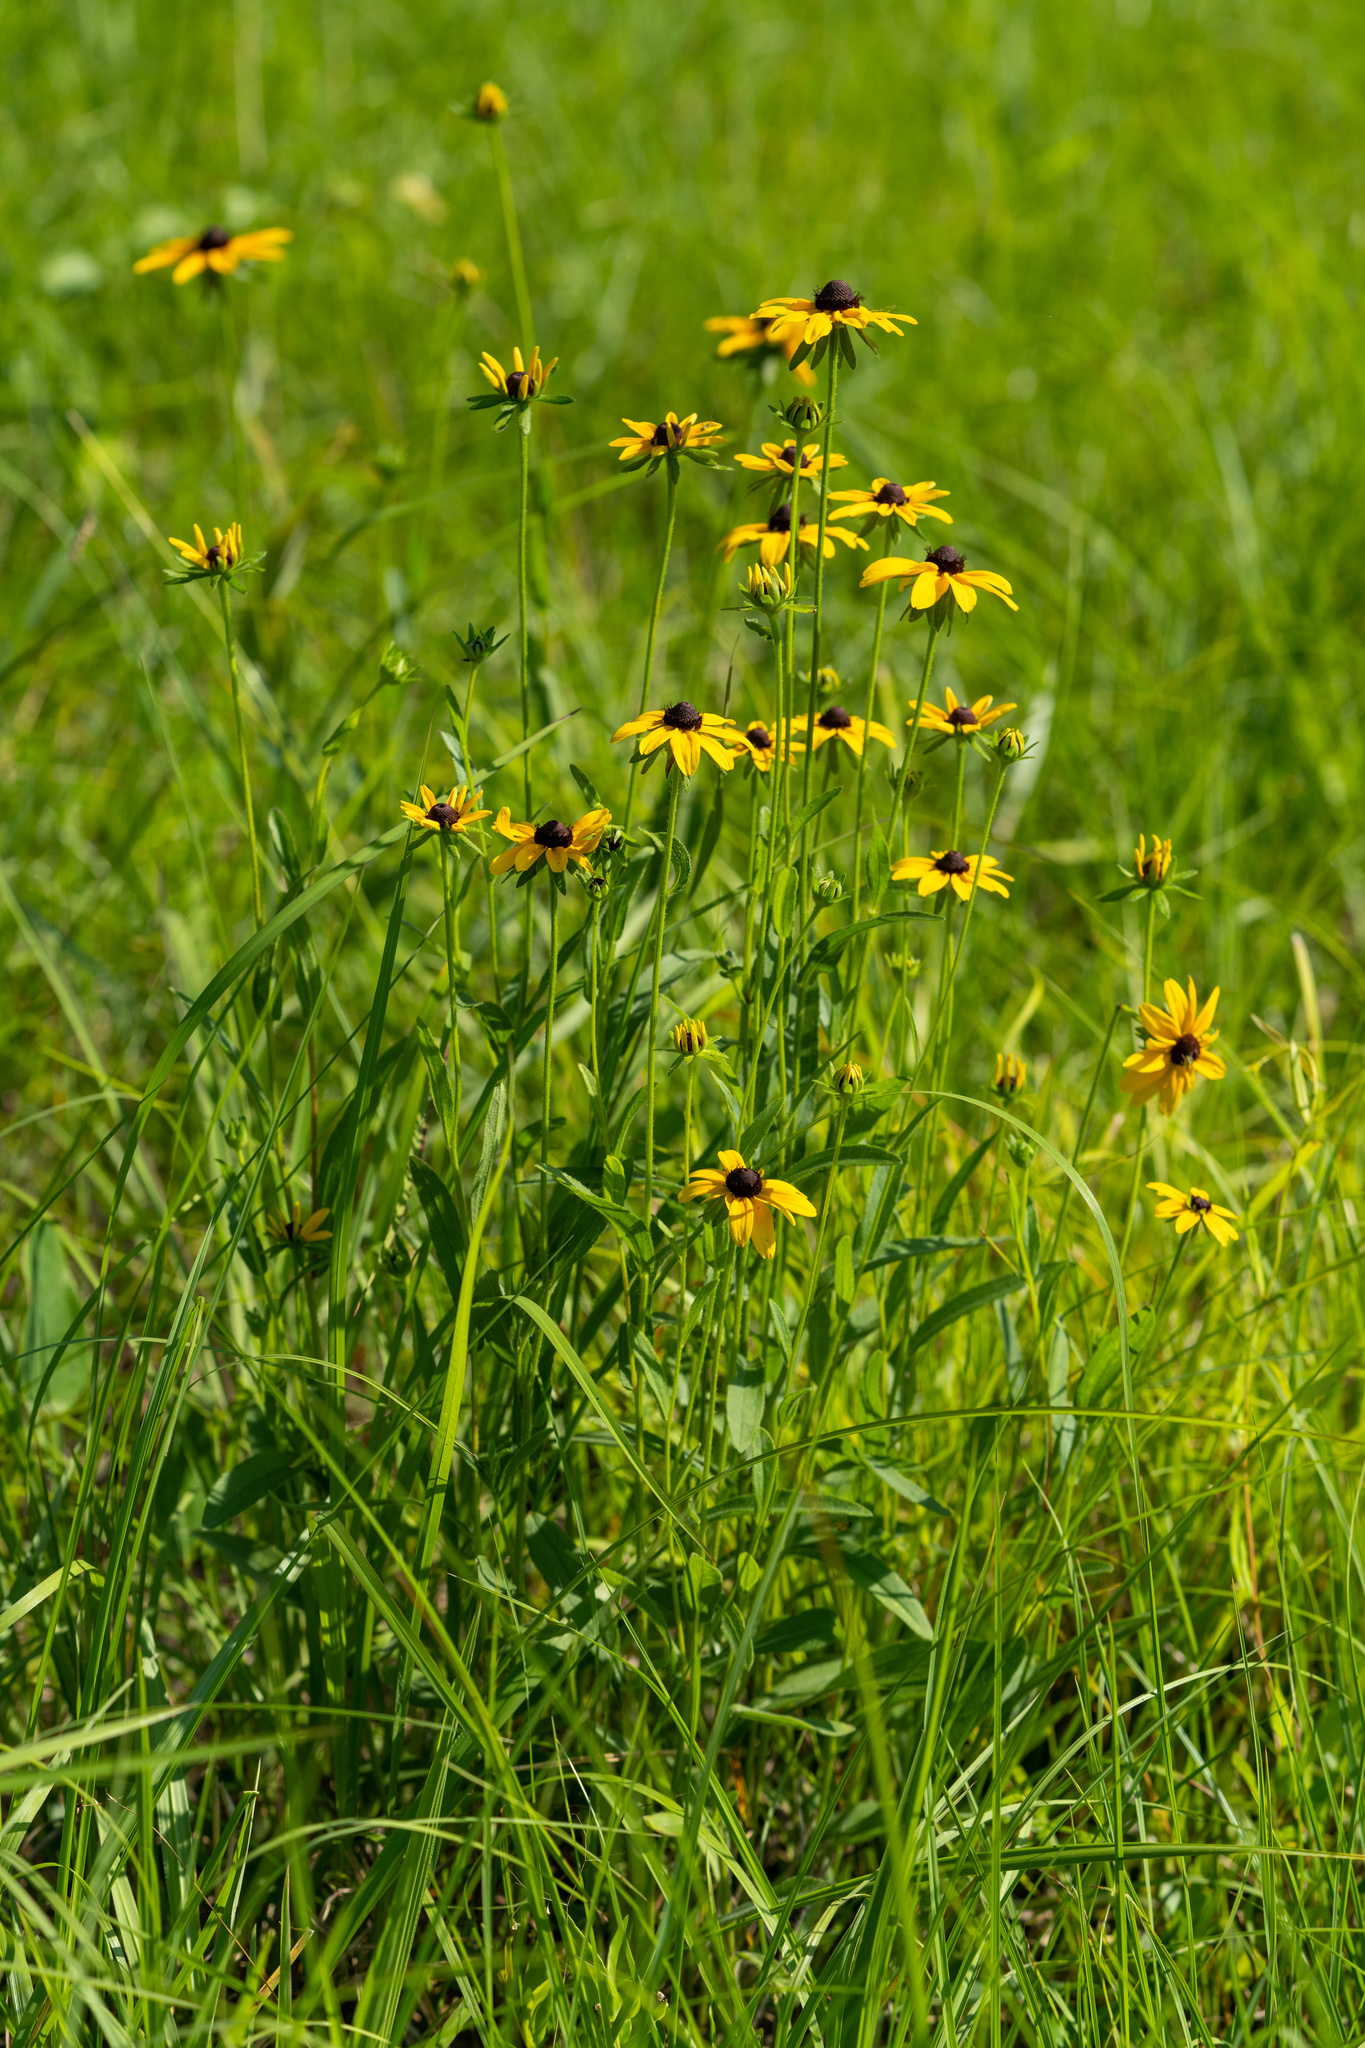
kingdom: Plantae
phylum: Tracheophyta
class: Magnoliopsida
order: Asterales
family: Asteraceae
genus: Rudbeckia
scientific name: Rudbeckia hirta
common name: Black-eyed-susan
